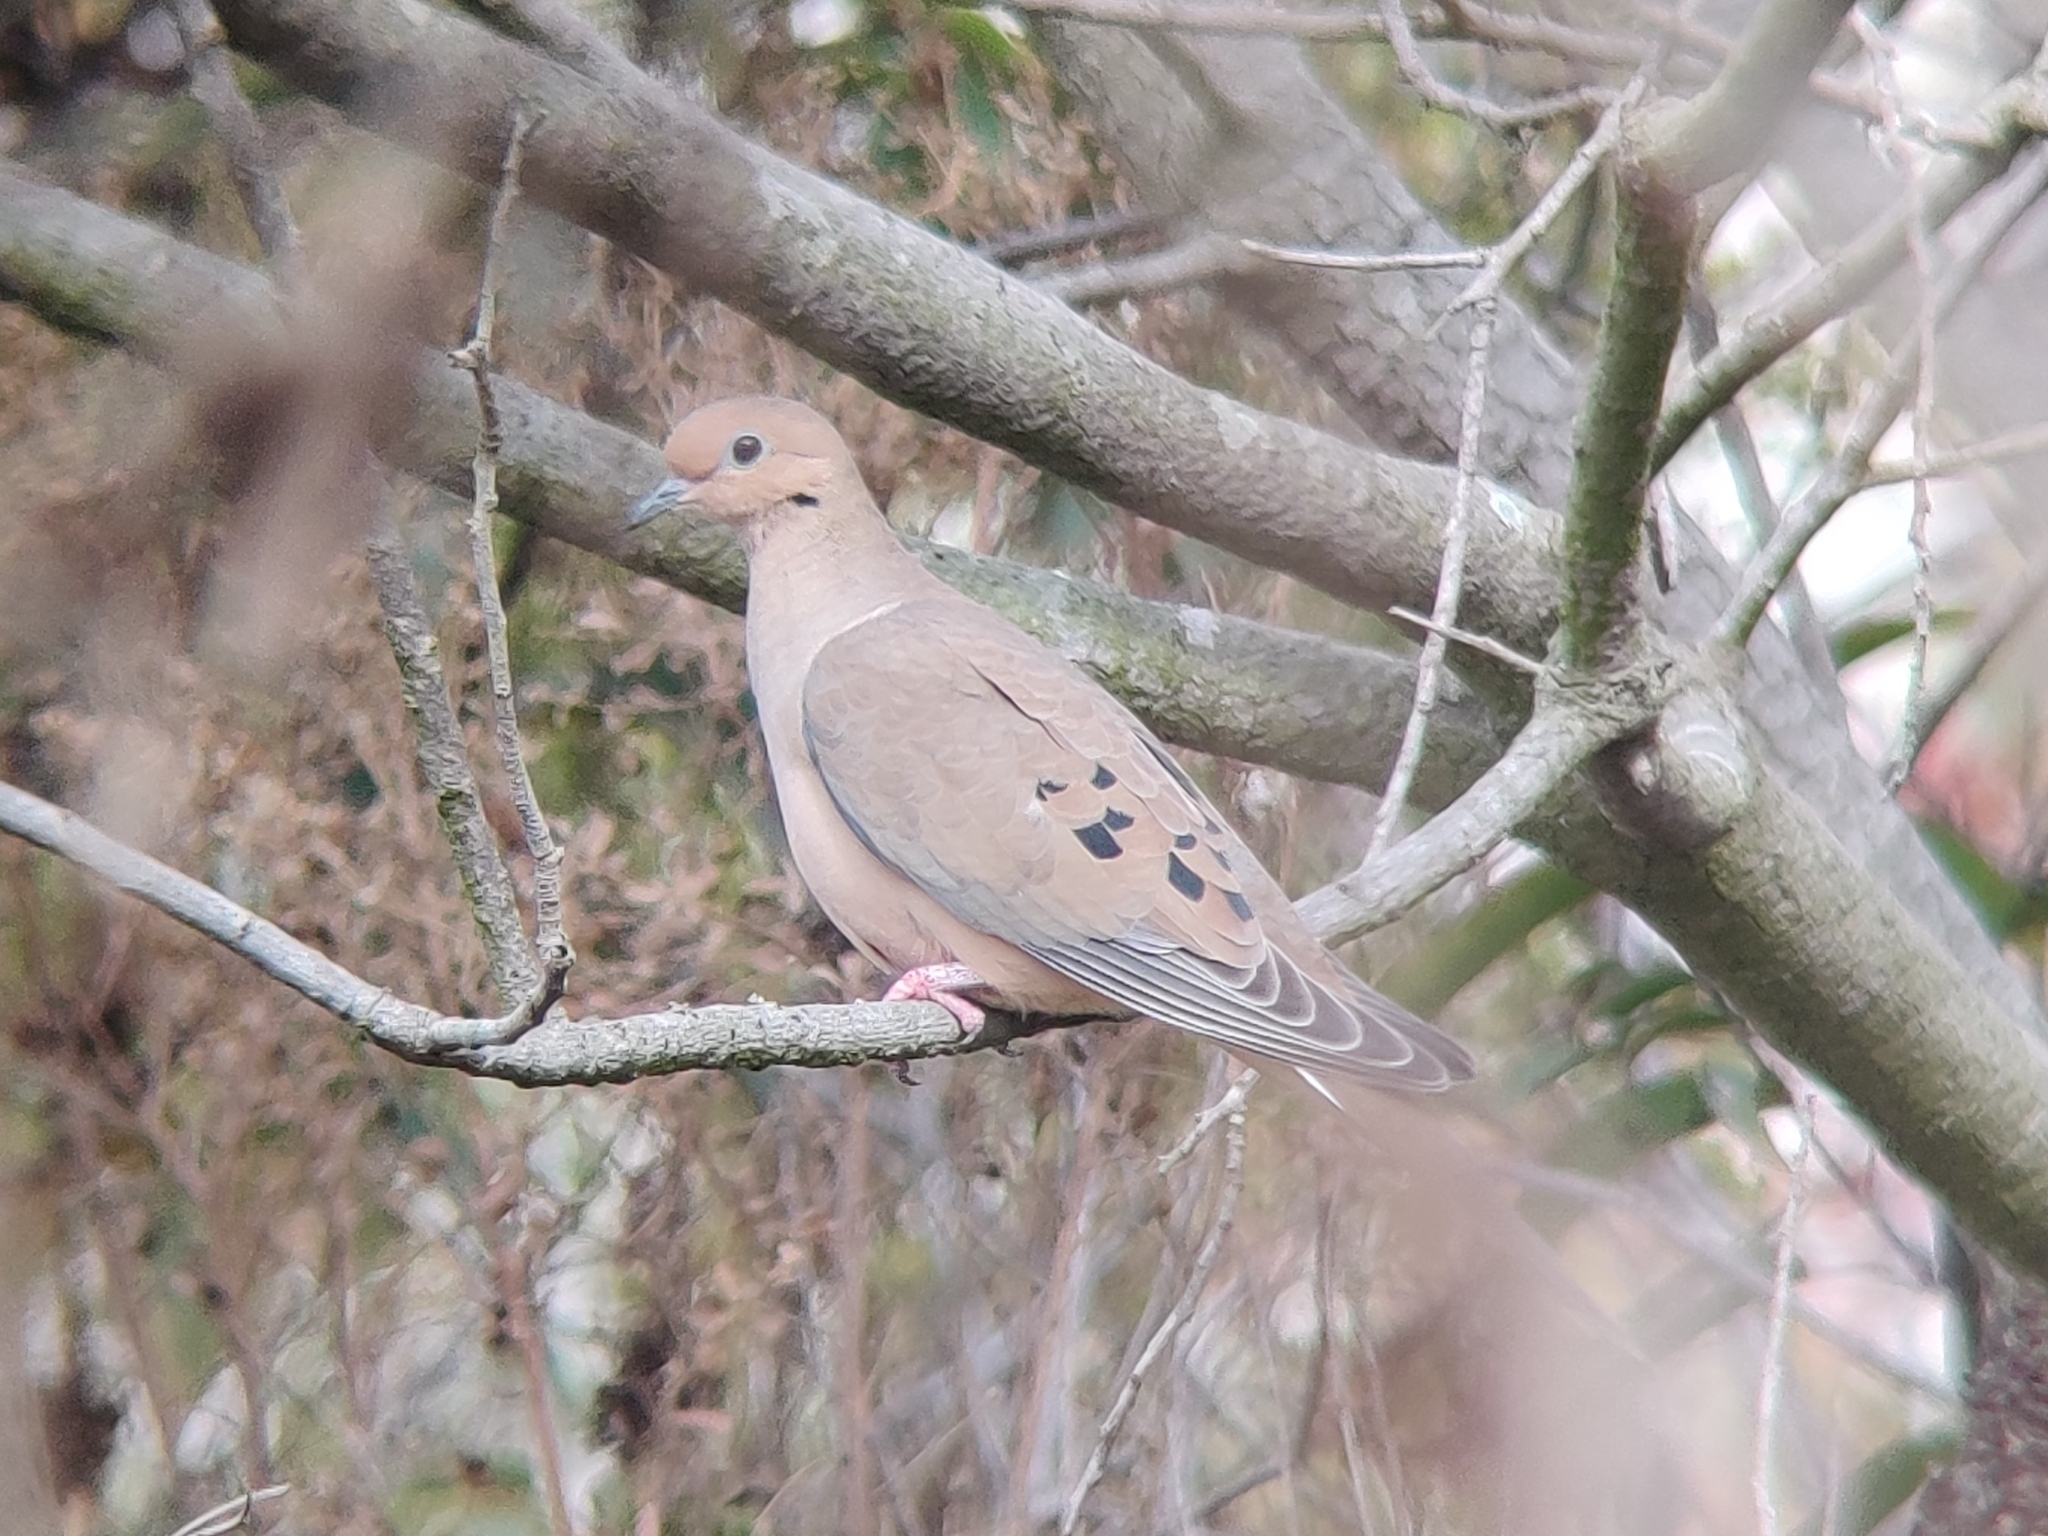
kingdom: Animalia
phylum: Chordata
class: Aves
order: Columbiformes
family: Columbidae
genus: Zenaida
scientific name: Zenaida macroura
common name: Mourning dove
